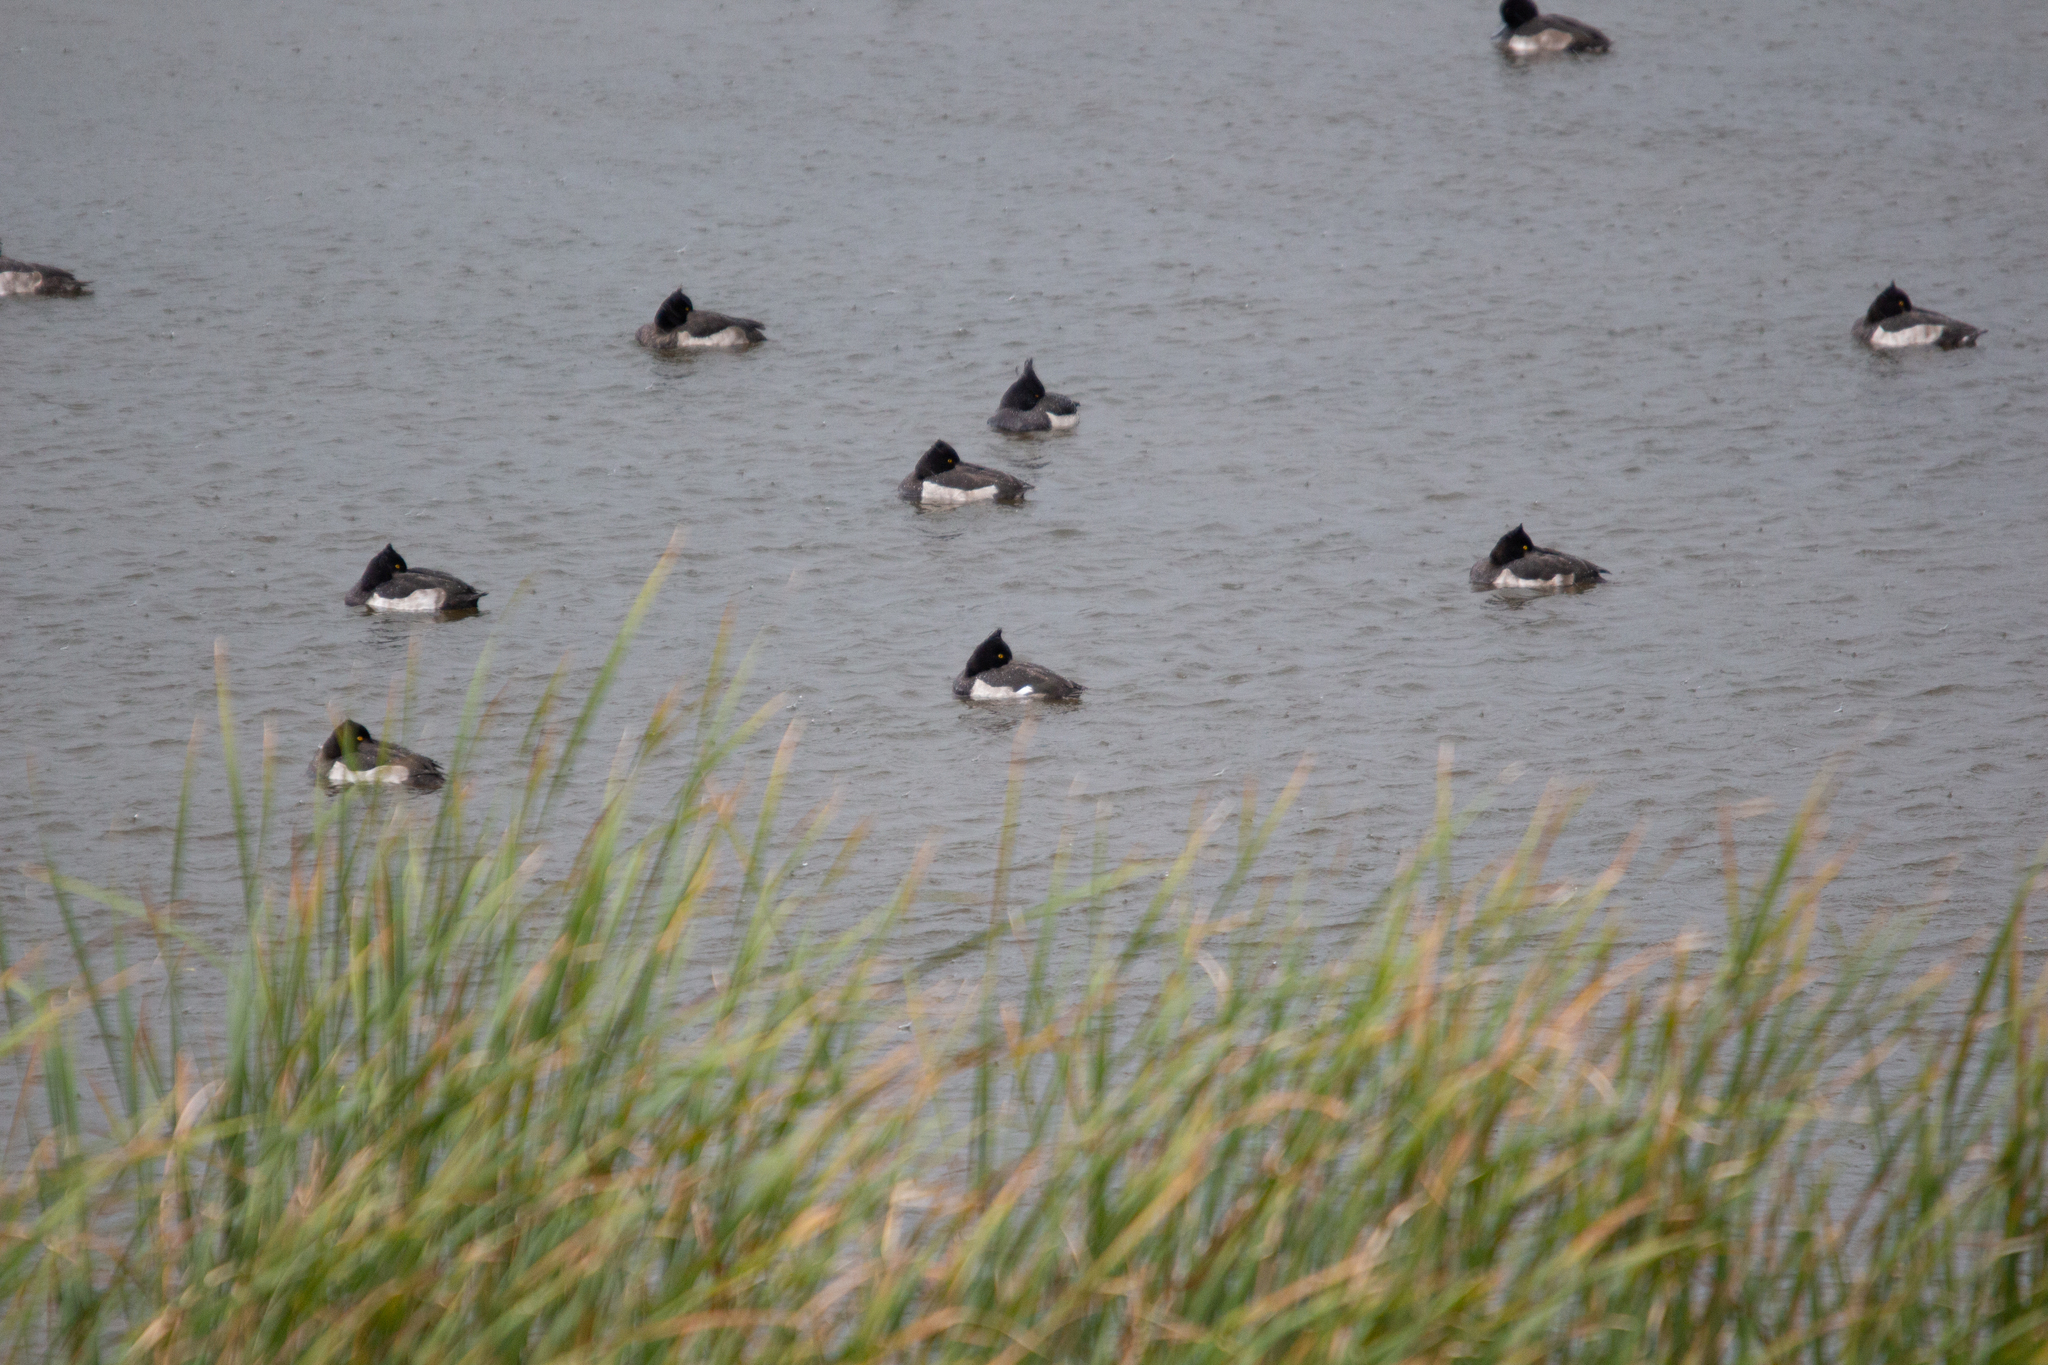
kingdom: Animalia
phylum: Chordata
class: Aves
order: Anseriformes
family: Anatidae
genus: Aythya
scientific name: Aythya fuligula
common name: Tufted duck
